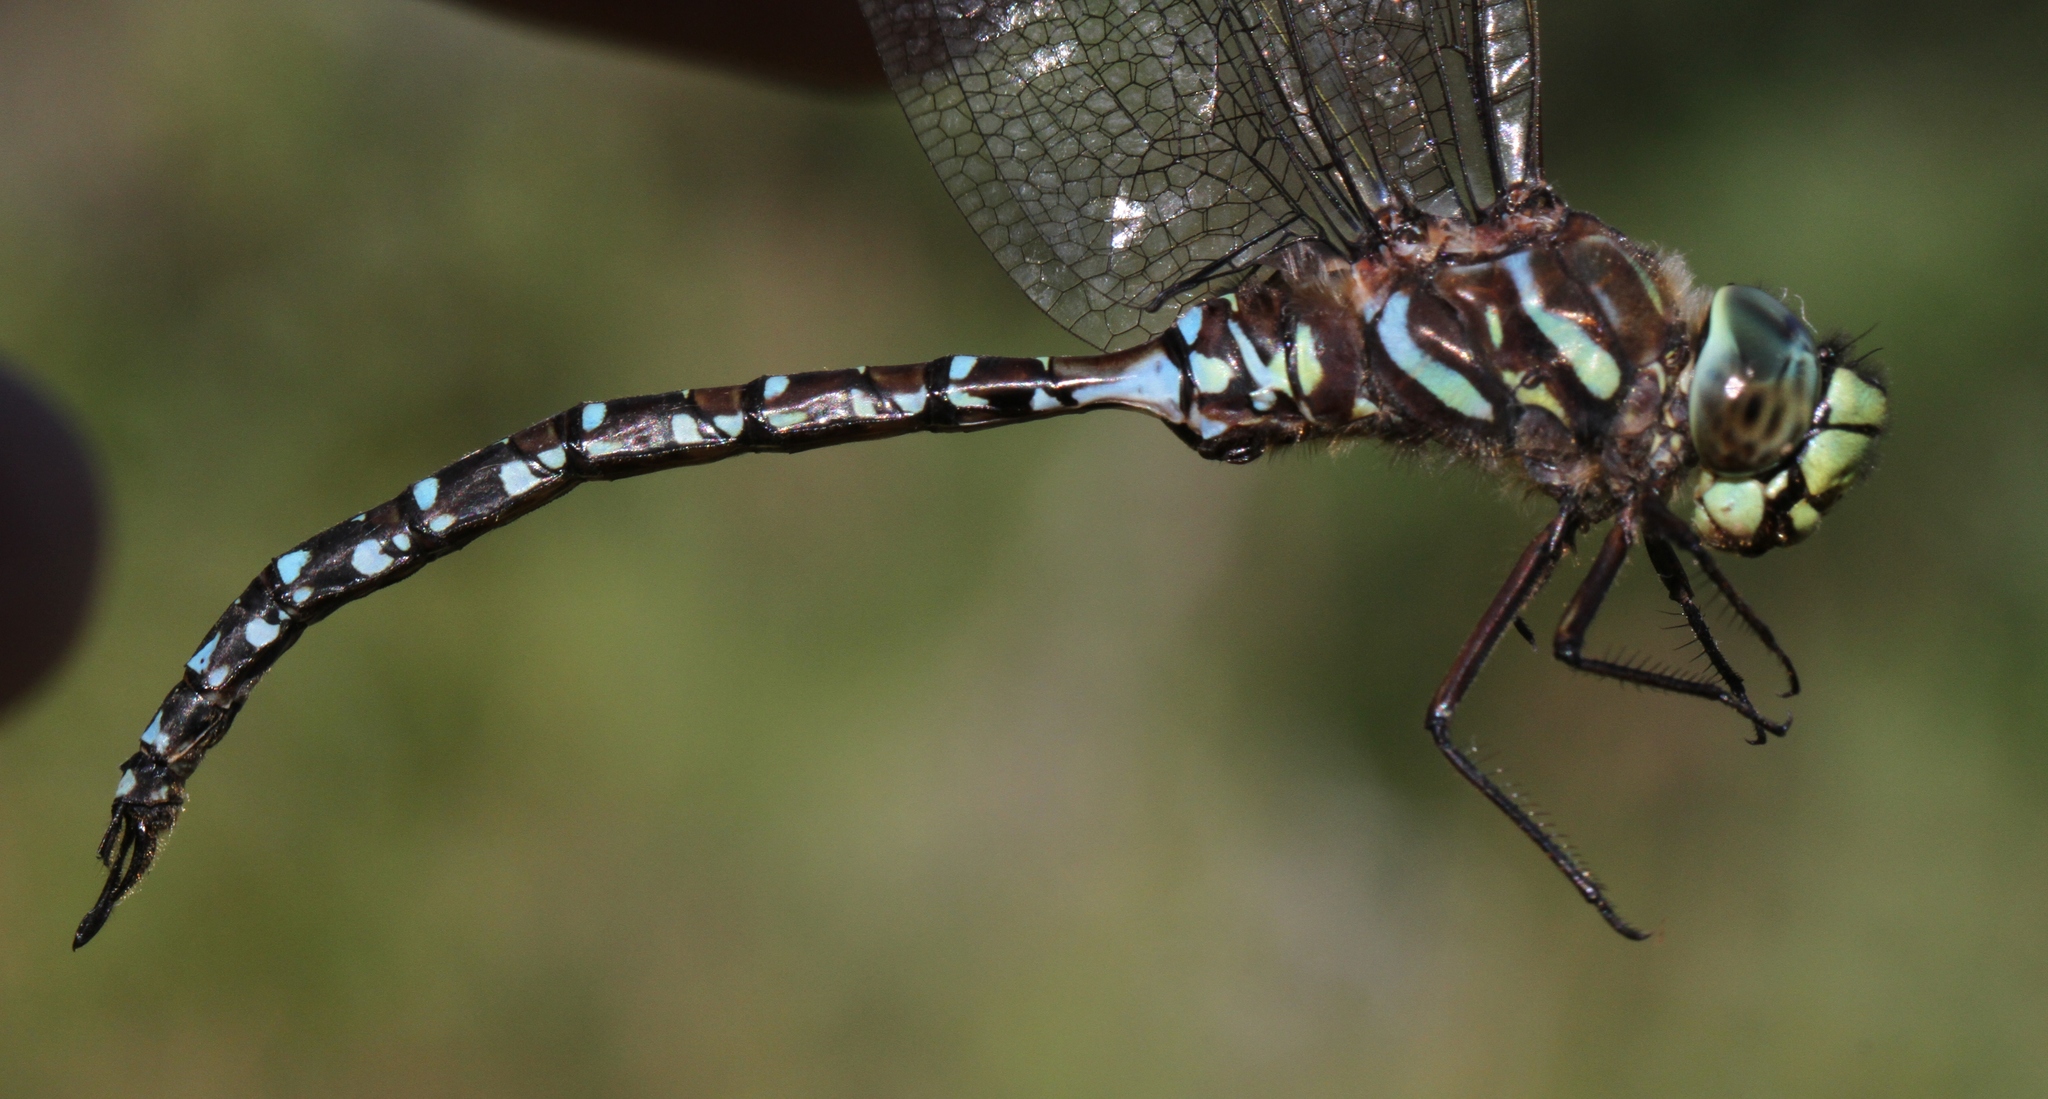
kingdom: Animalia
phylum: Arthropoda
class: Insecta
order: Odonata
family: Aeshnidae
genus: Aeshna
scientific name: Aeshna subarctica
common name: Subarctic darner
